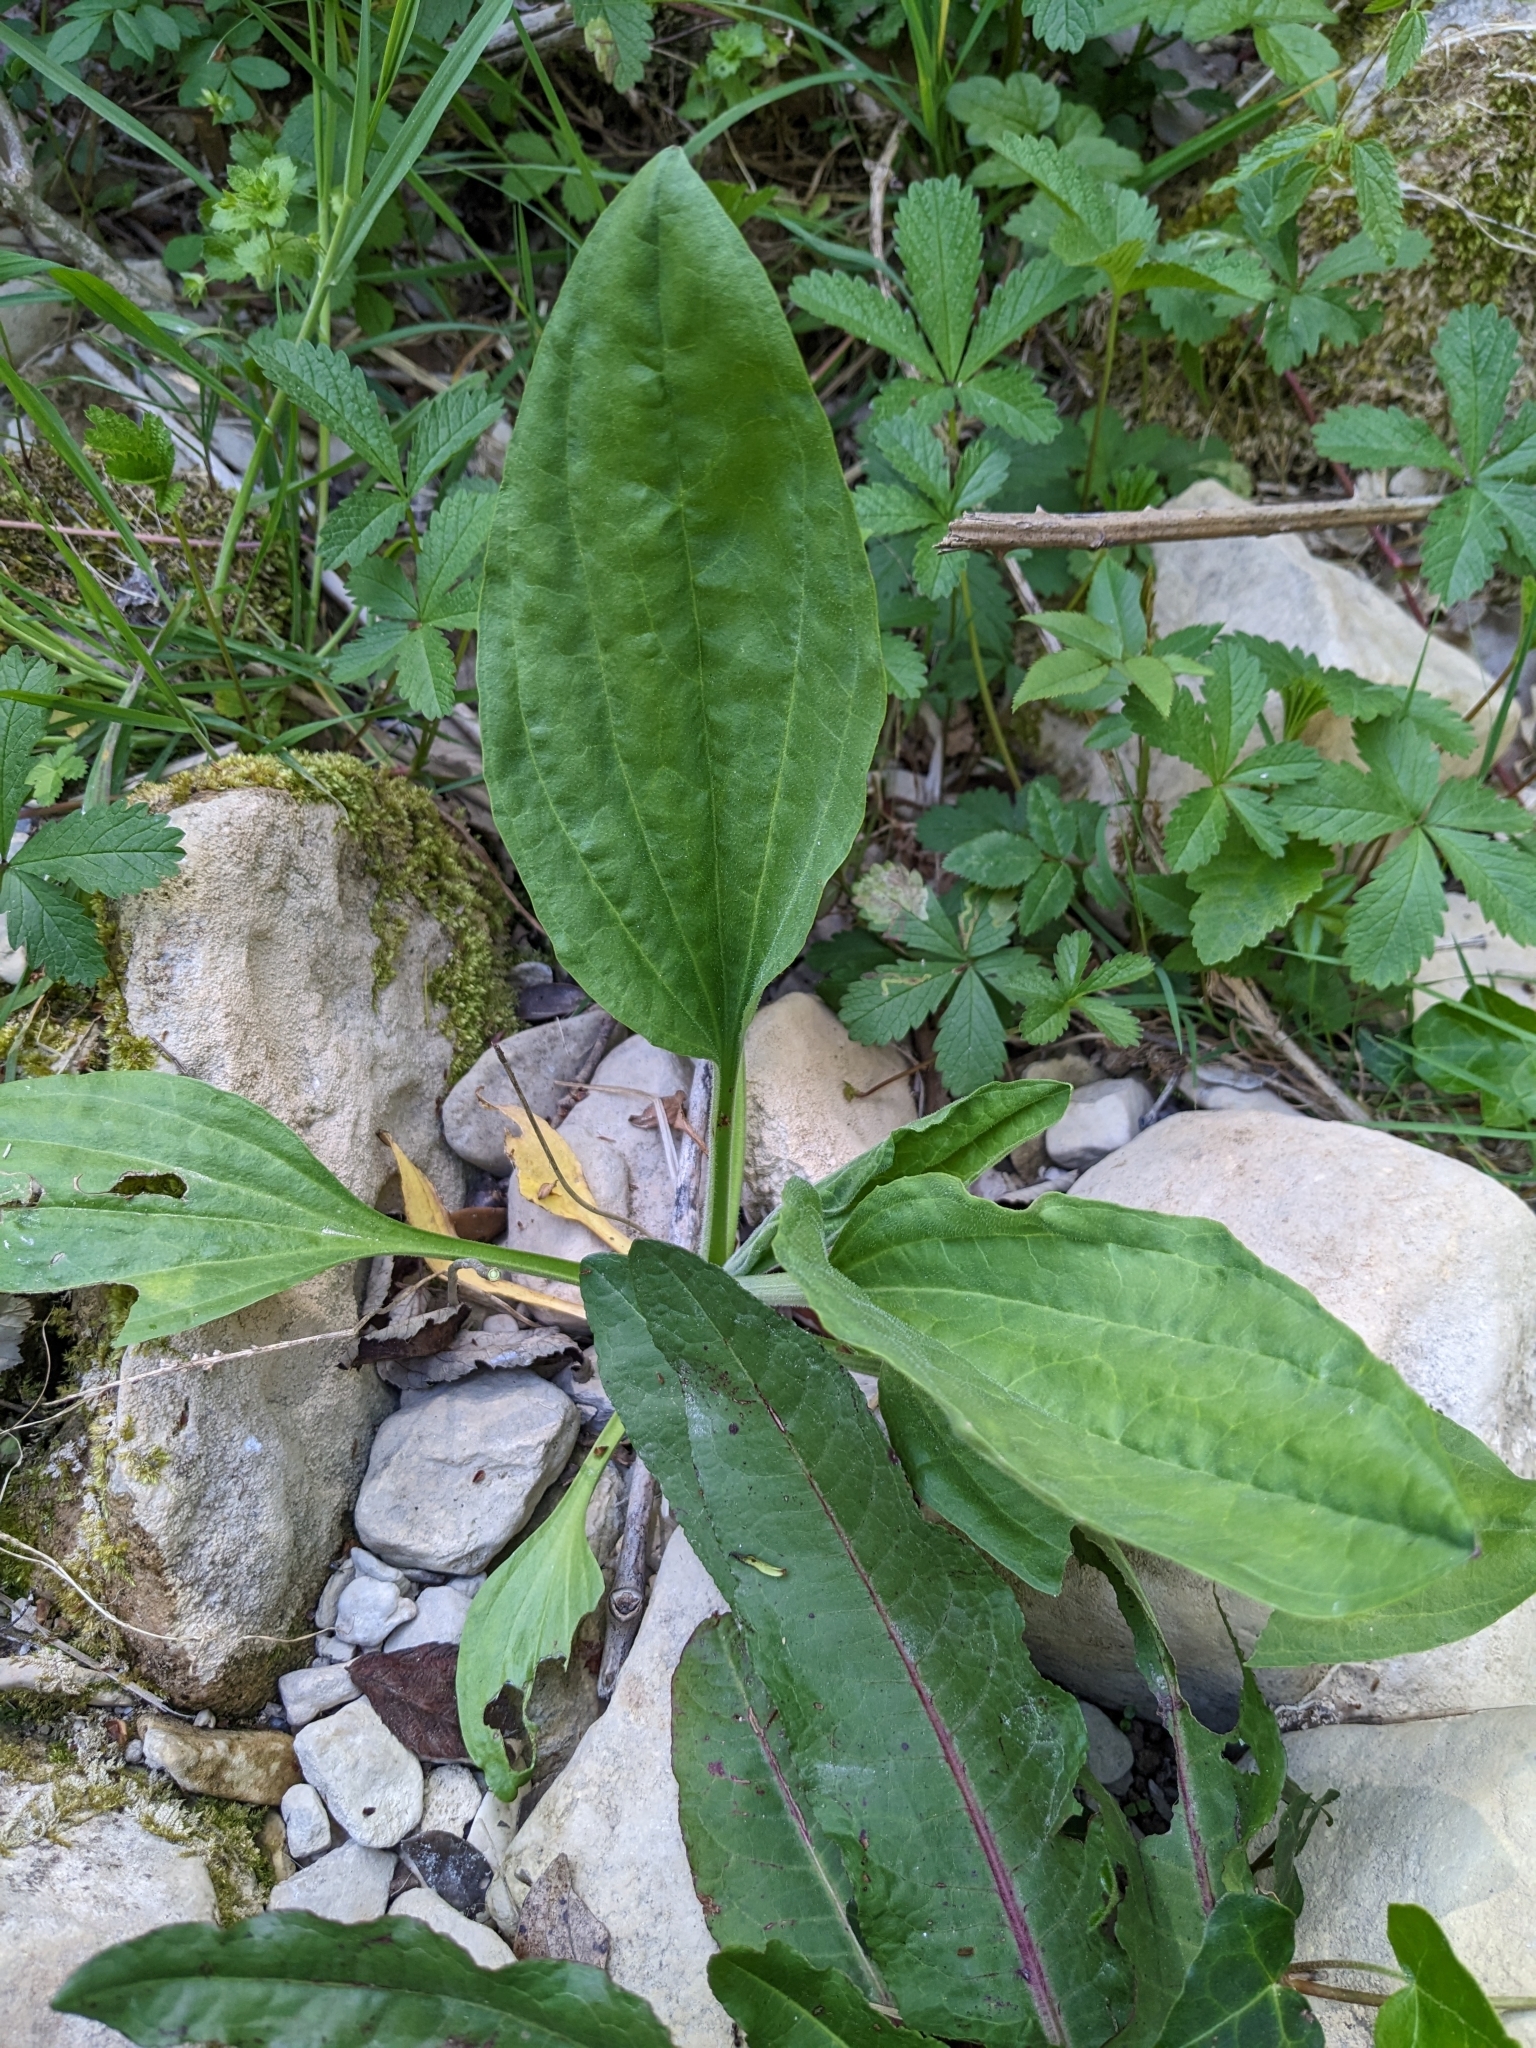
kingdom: Plantae
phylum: Tracheophyta
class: Magnoliopsida
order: Lamiales
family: Plantaginaceae
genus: Plantago
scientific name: Plantago major
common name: Common plantain
